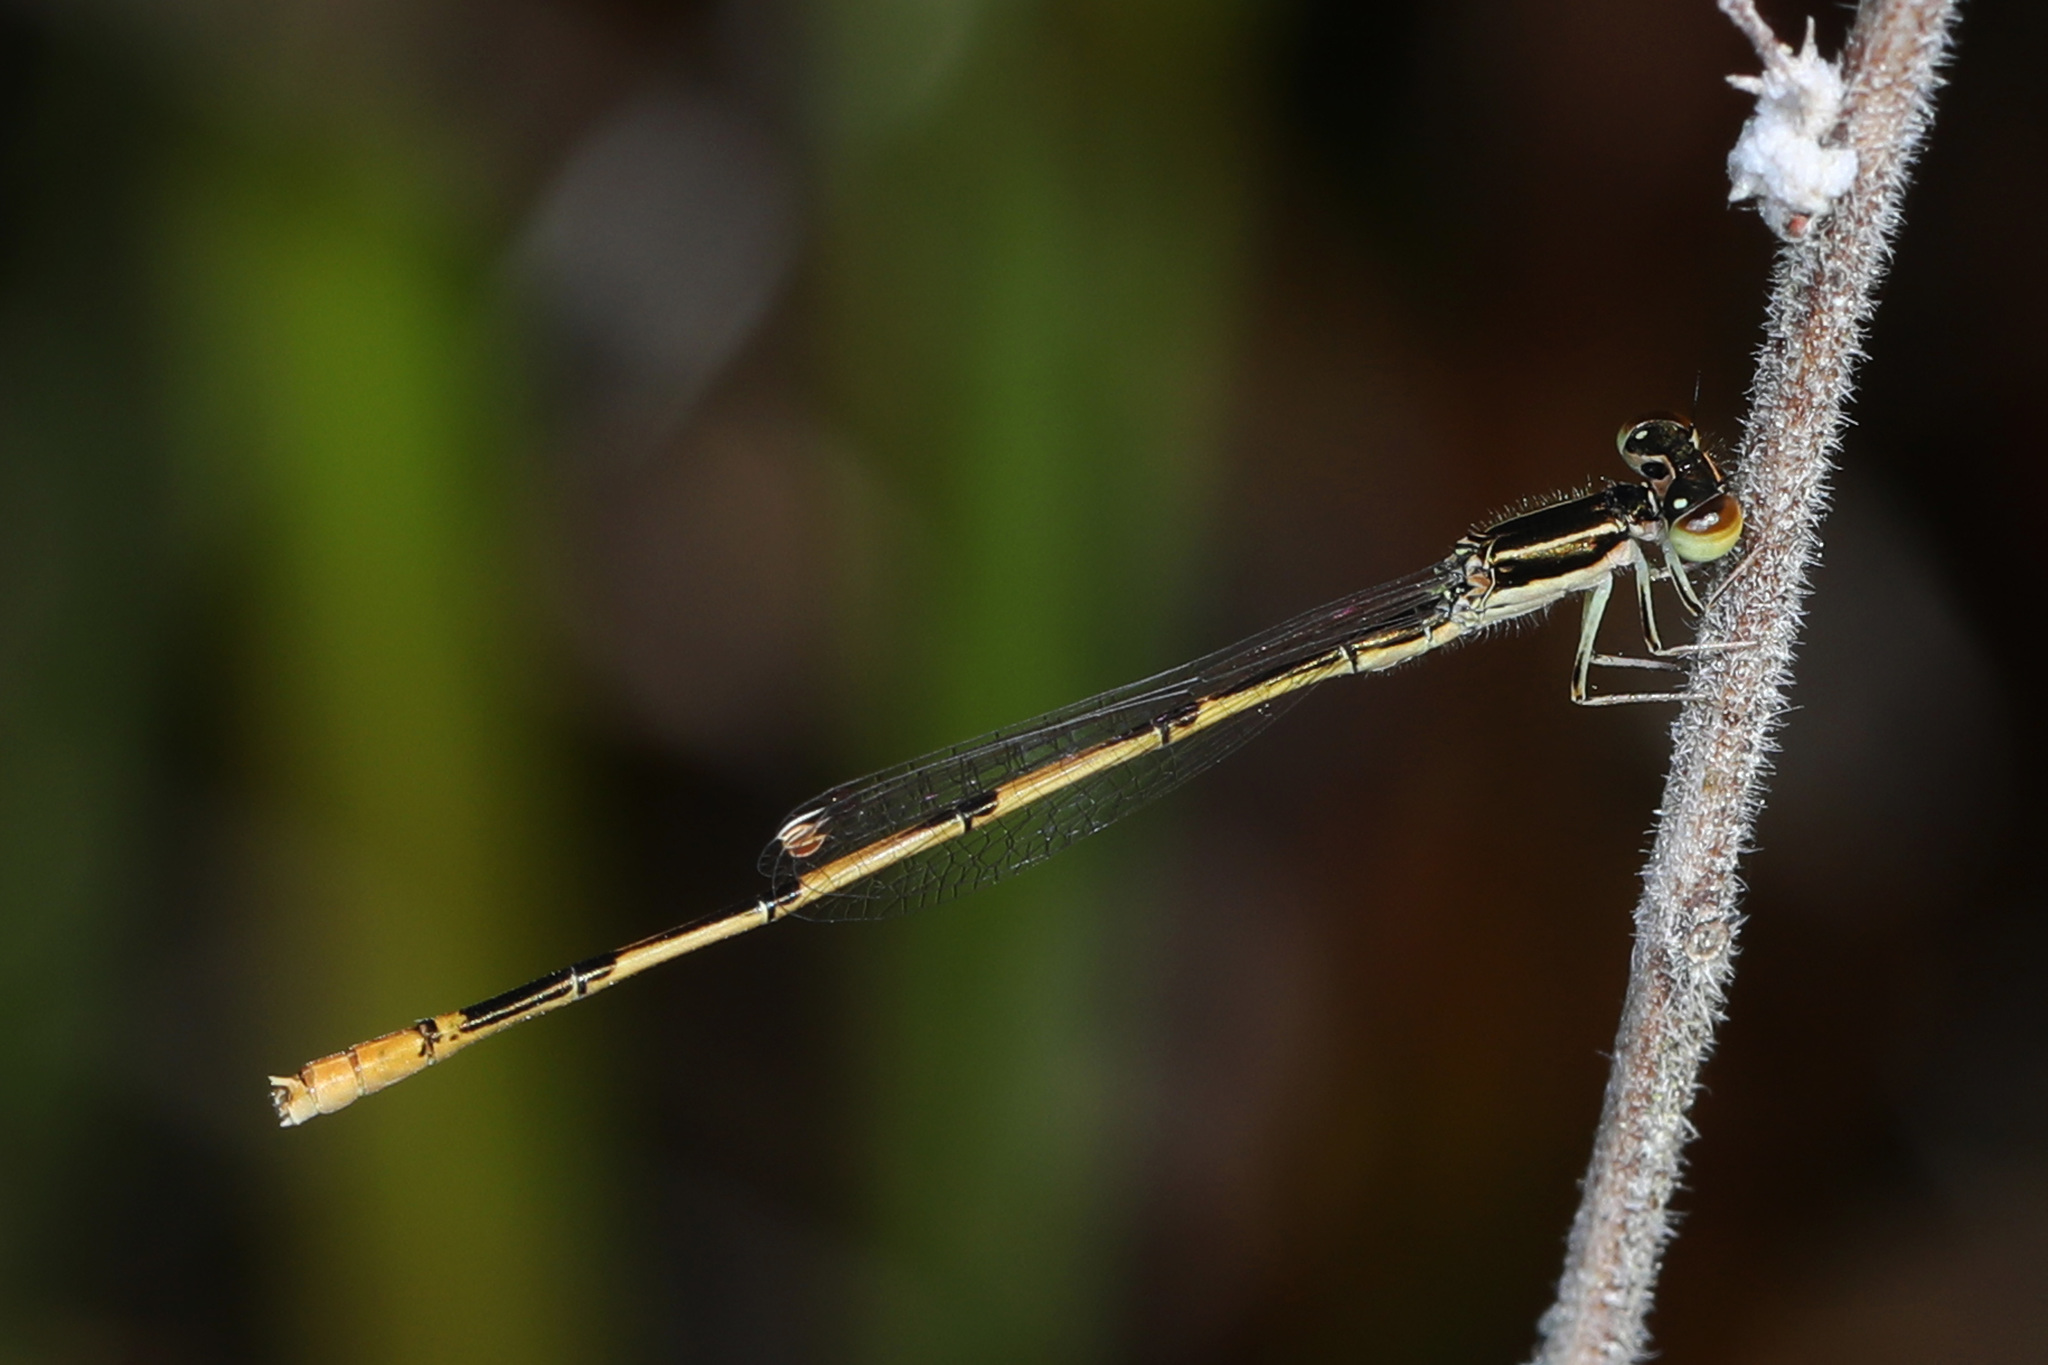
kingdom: Animalia
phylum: Arthropoda
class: Insecta
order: Odonata
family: Coenagrionidae
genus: Ischnura
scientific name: Ischnura hastata
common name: Citrine forktail
